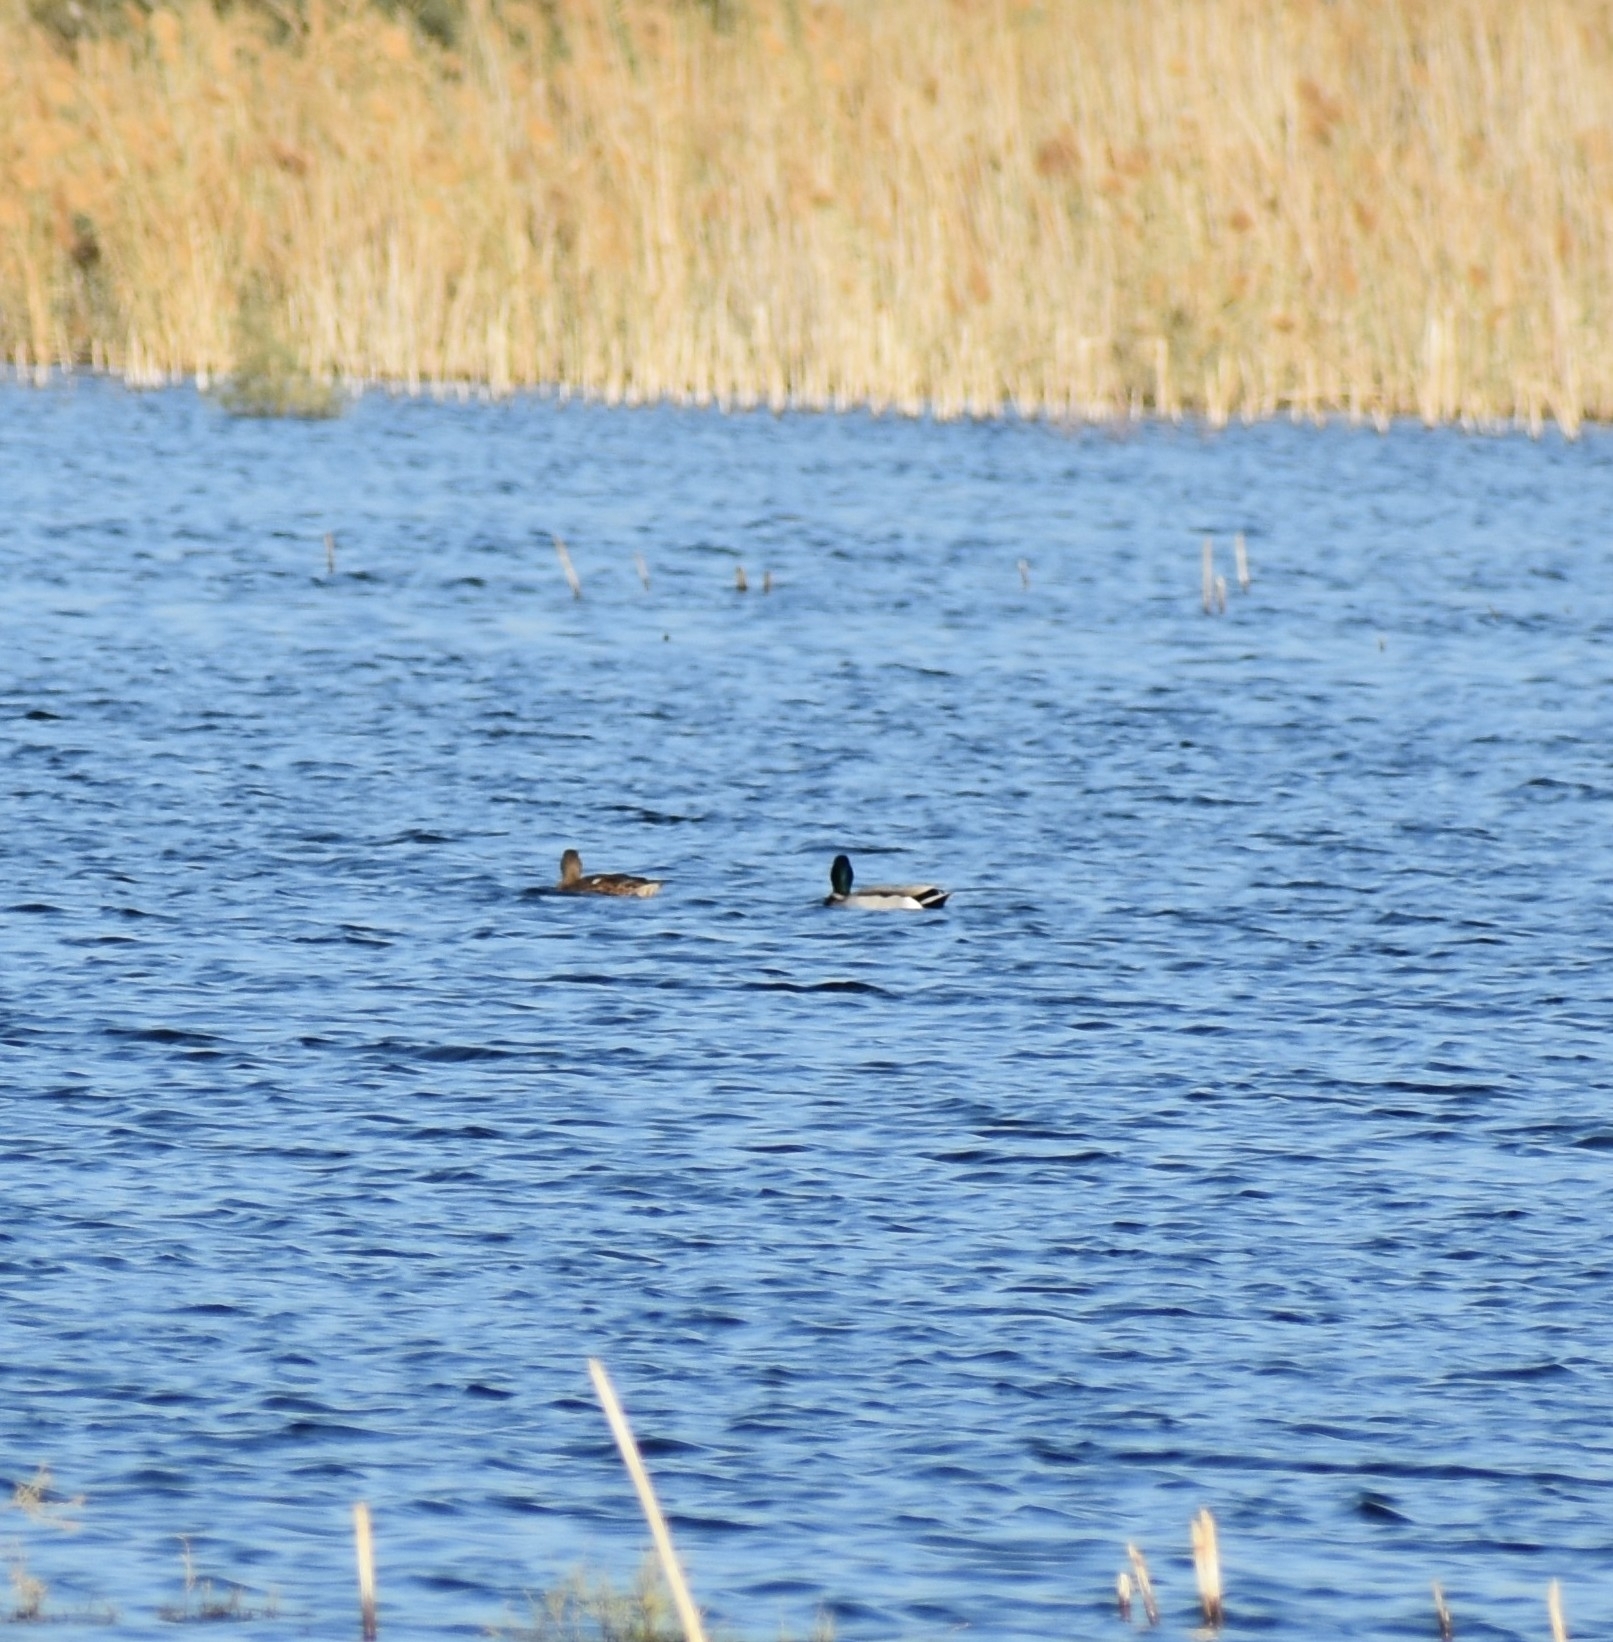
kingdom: Animalia
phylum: Chordata
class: Aves
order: Anseriformes
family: Anatidae
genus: Anas
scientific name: Anas platyrhynchos
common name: Mallard
